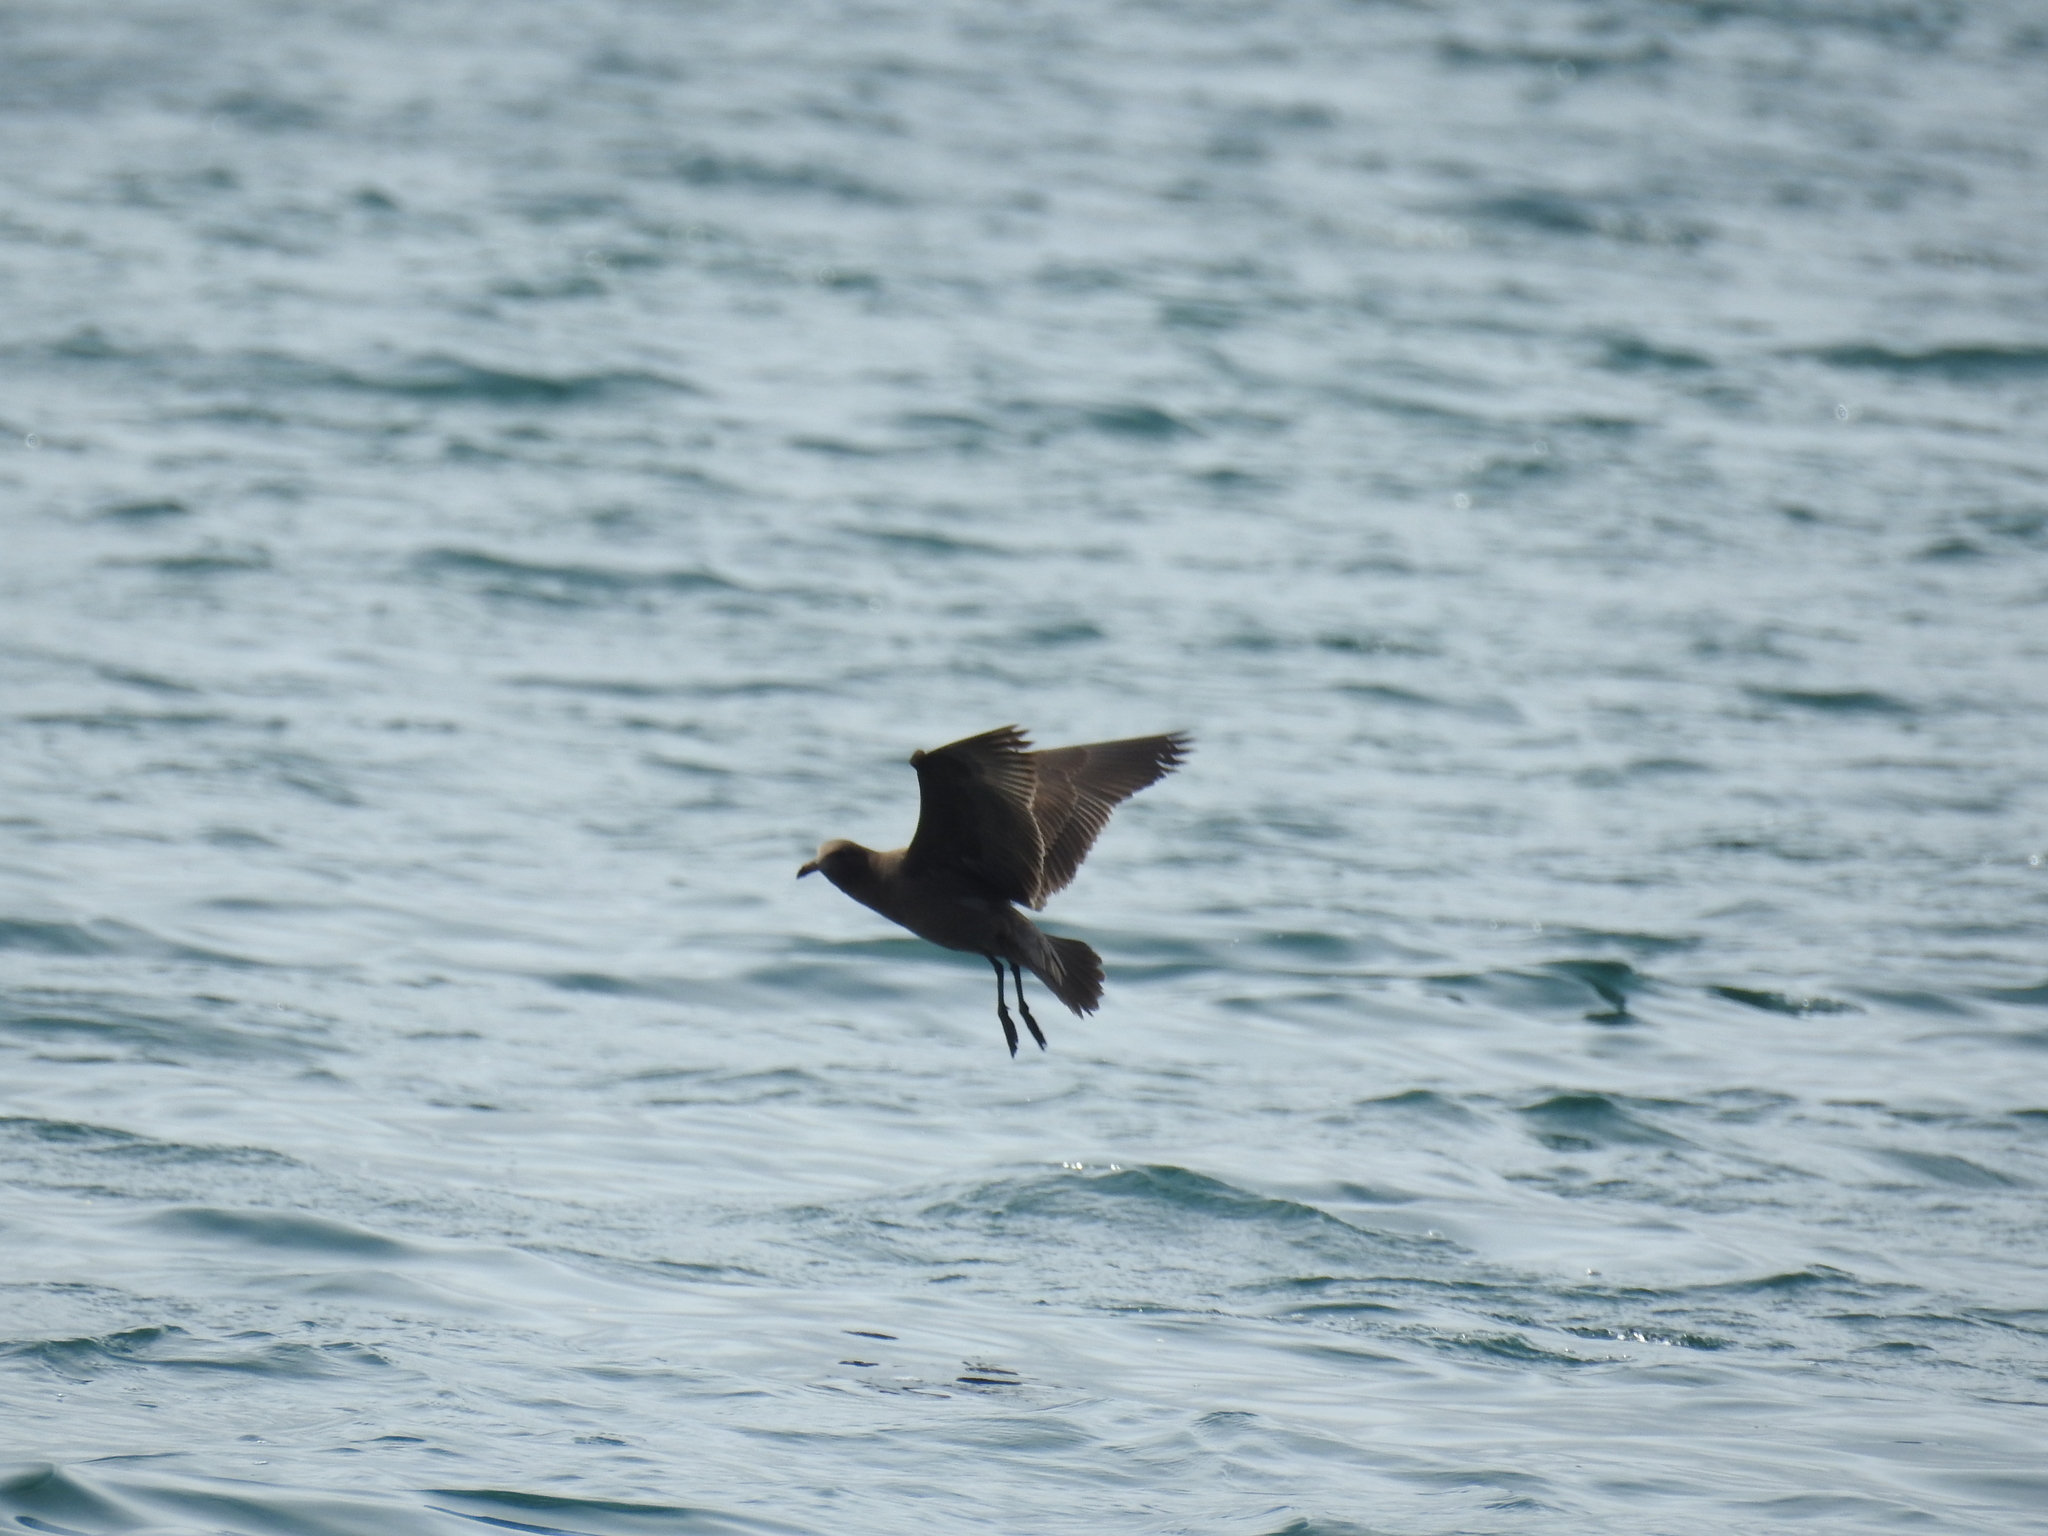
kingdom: Animalia
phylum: Chordata
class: Aves
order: Charadriiformes
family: Laridae
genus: Larus
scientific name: Larus heermanni
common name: Heermann's gull
